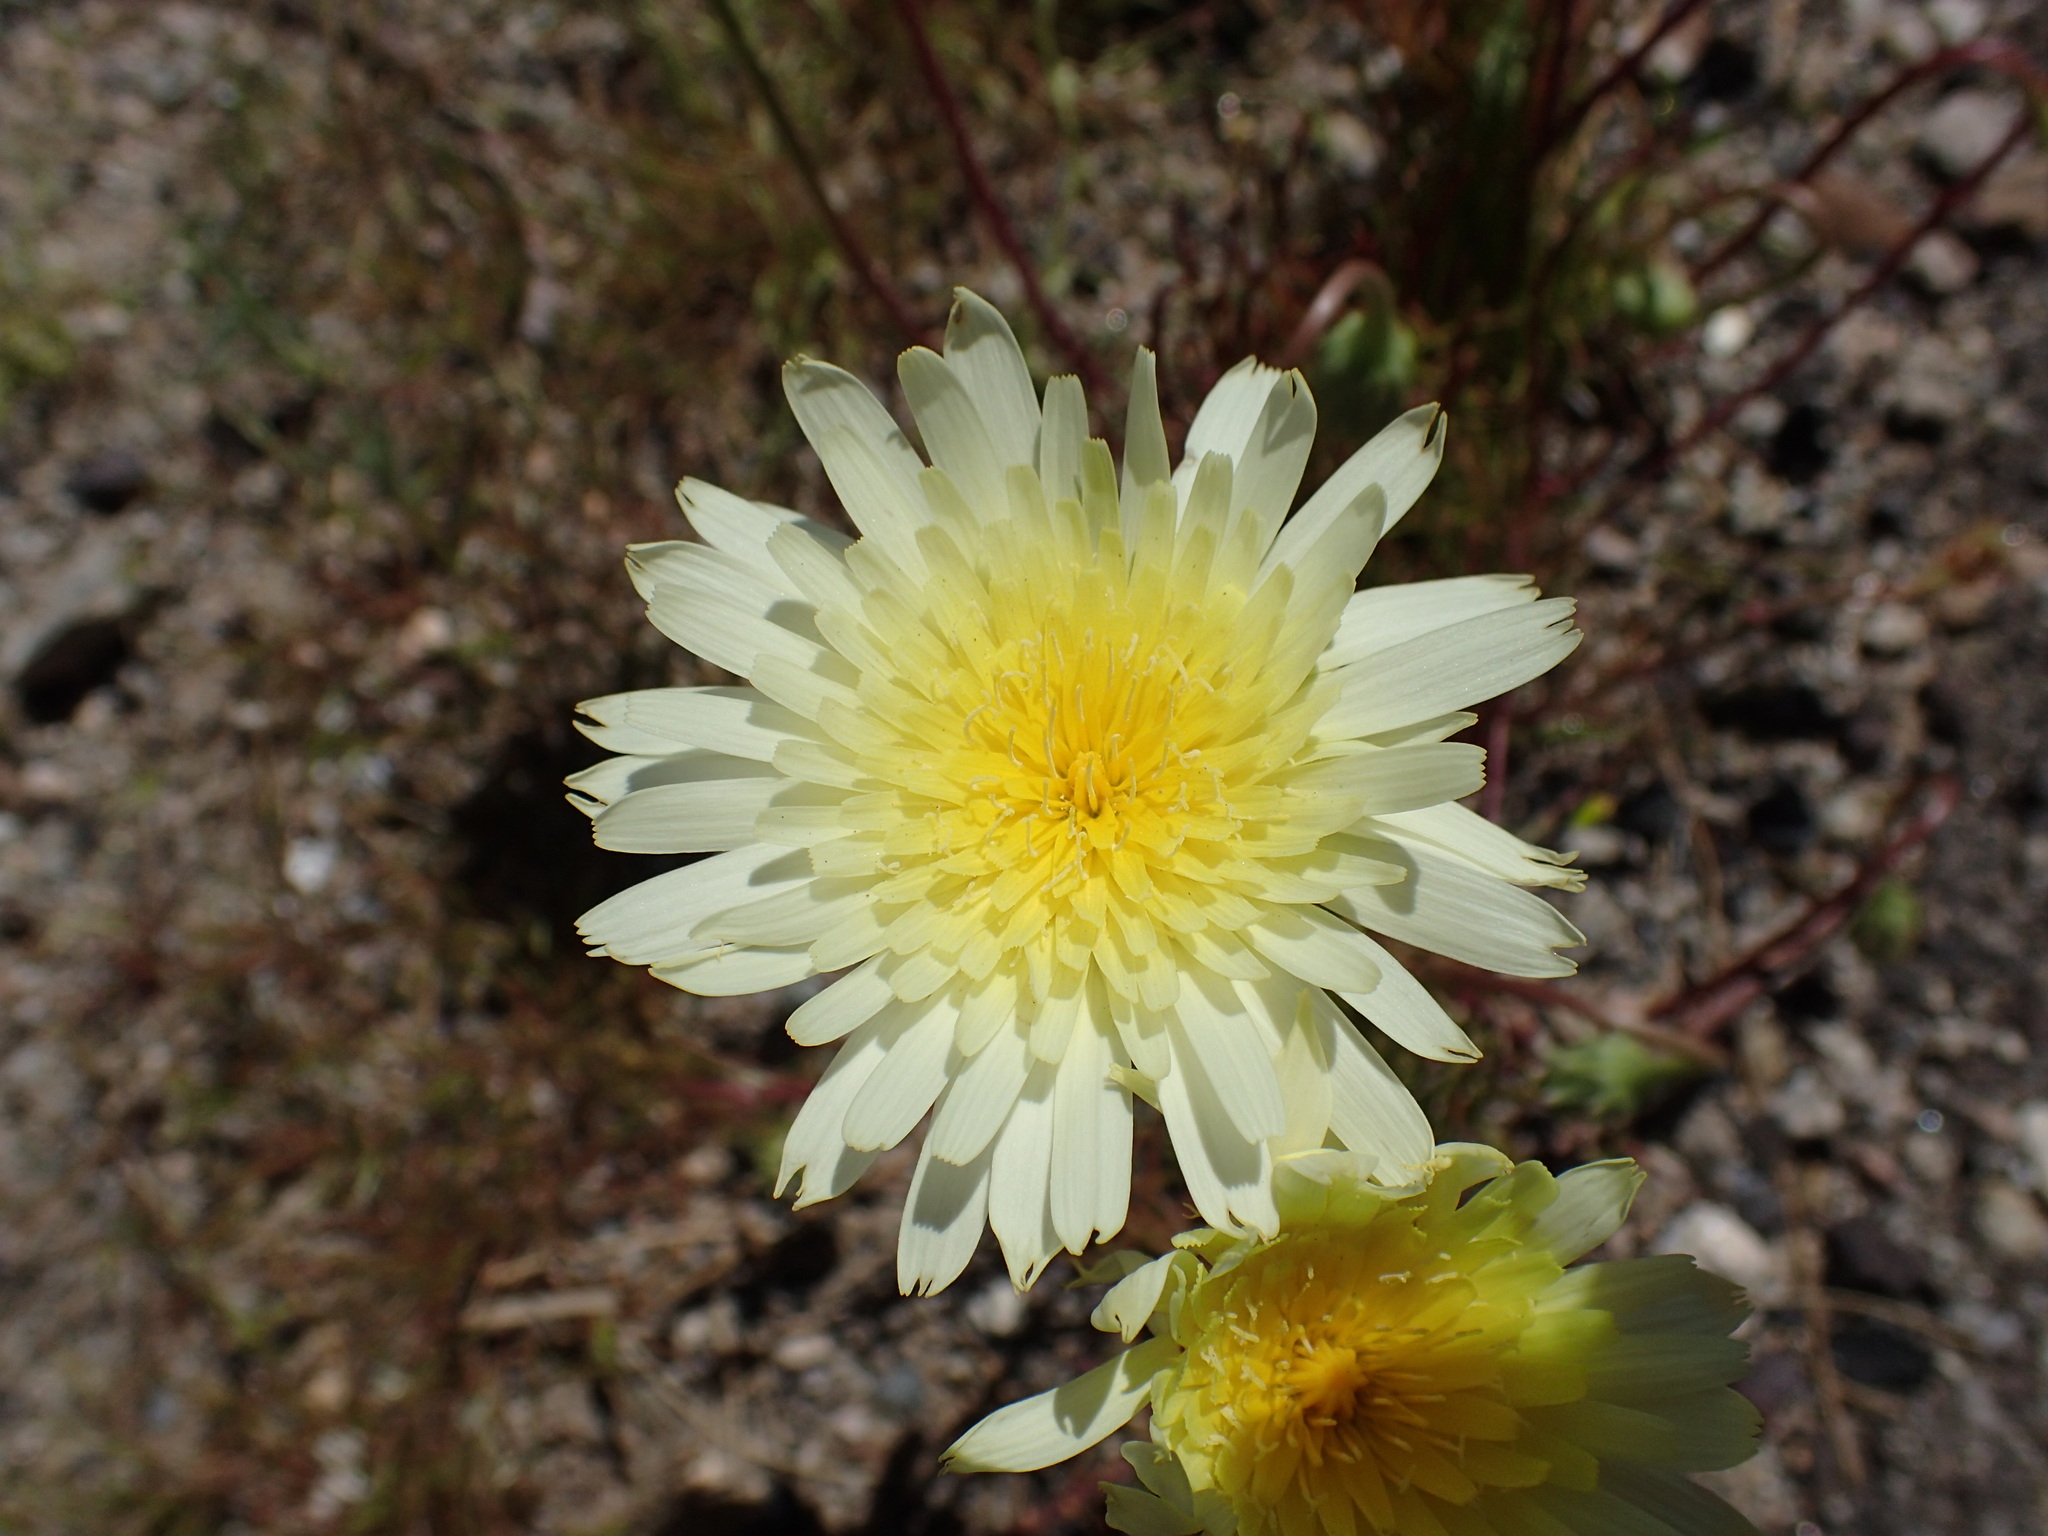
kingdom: Plantae
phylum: Tracheophyta
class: Magnoliopsida
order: Asterales
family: Asteraceae
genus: Malacothrix
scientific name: Malacothrix glabrata
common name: Smooth desert-dandelion
